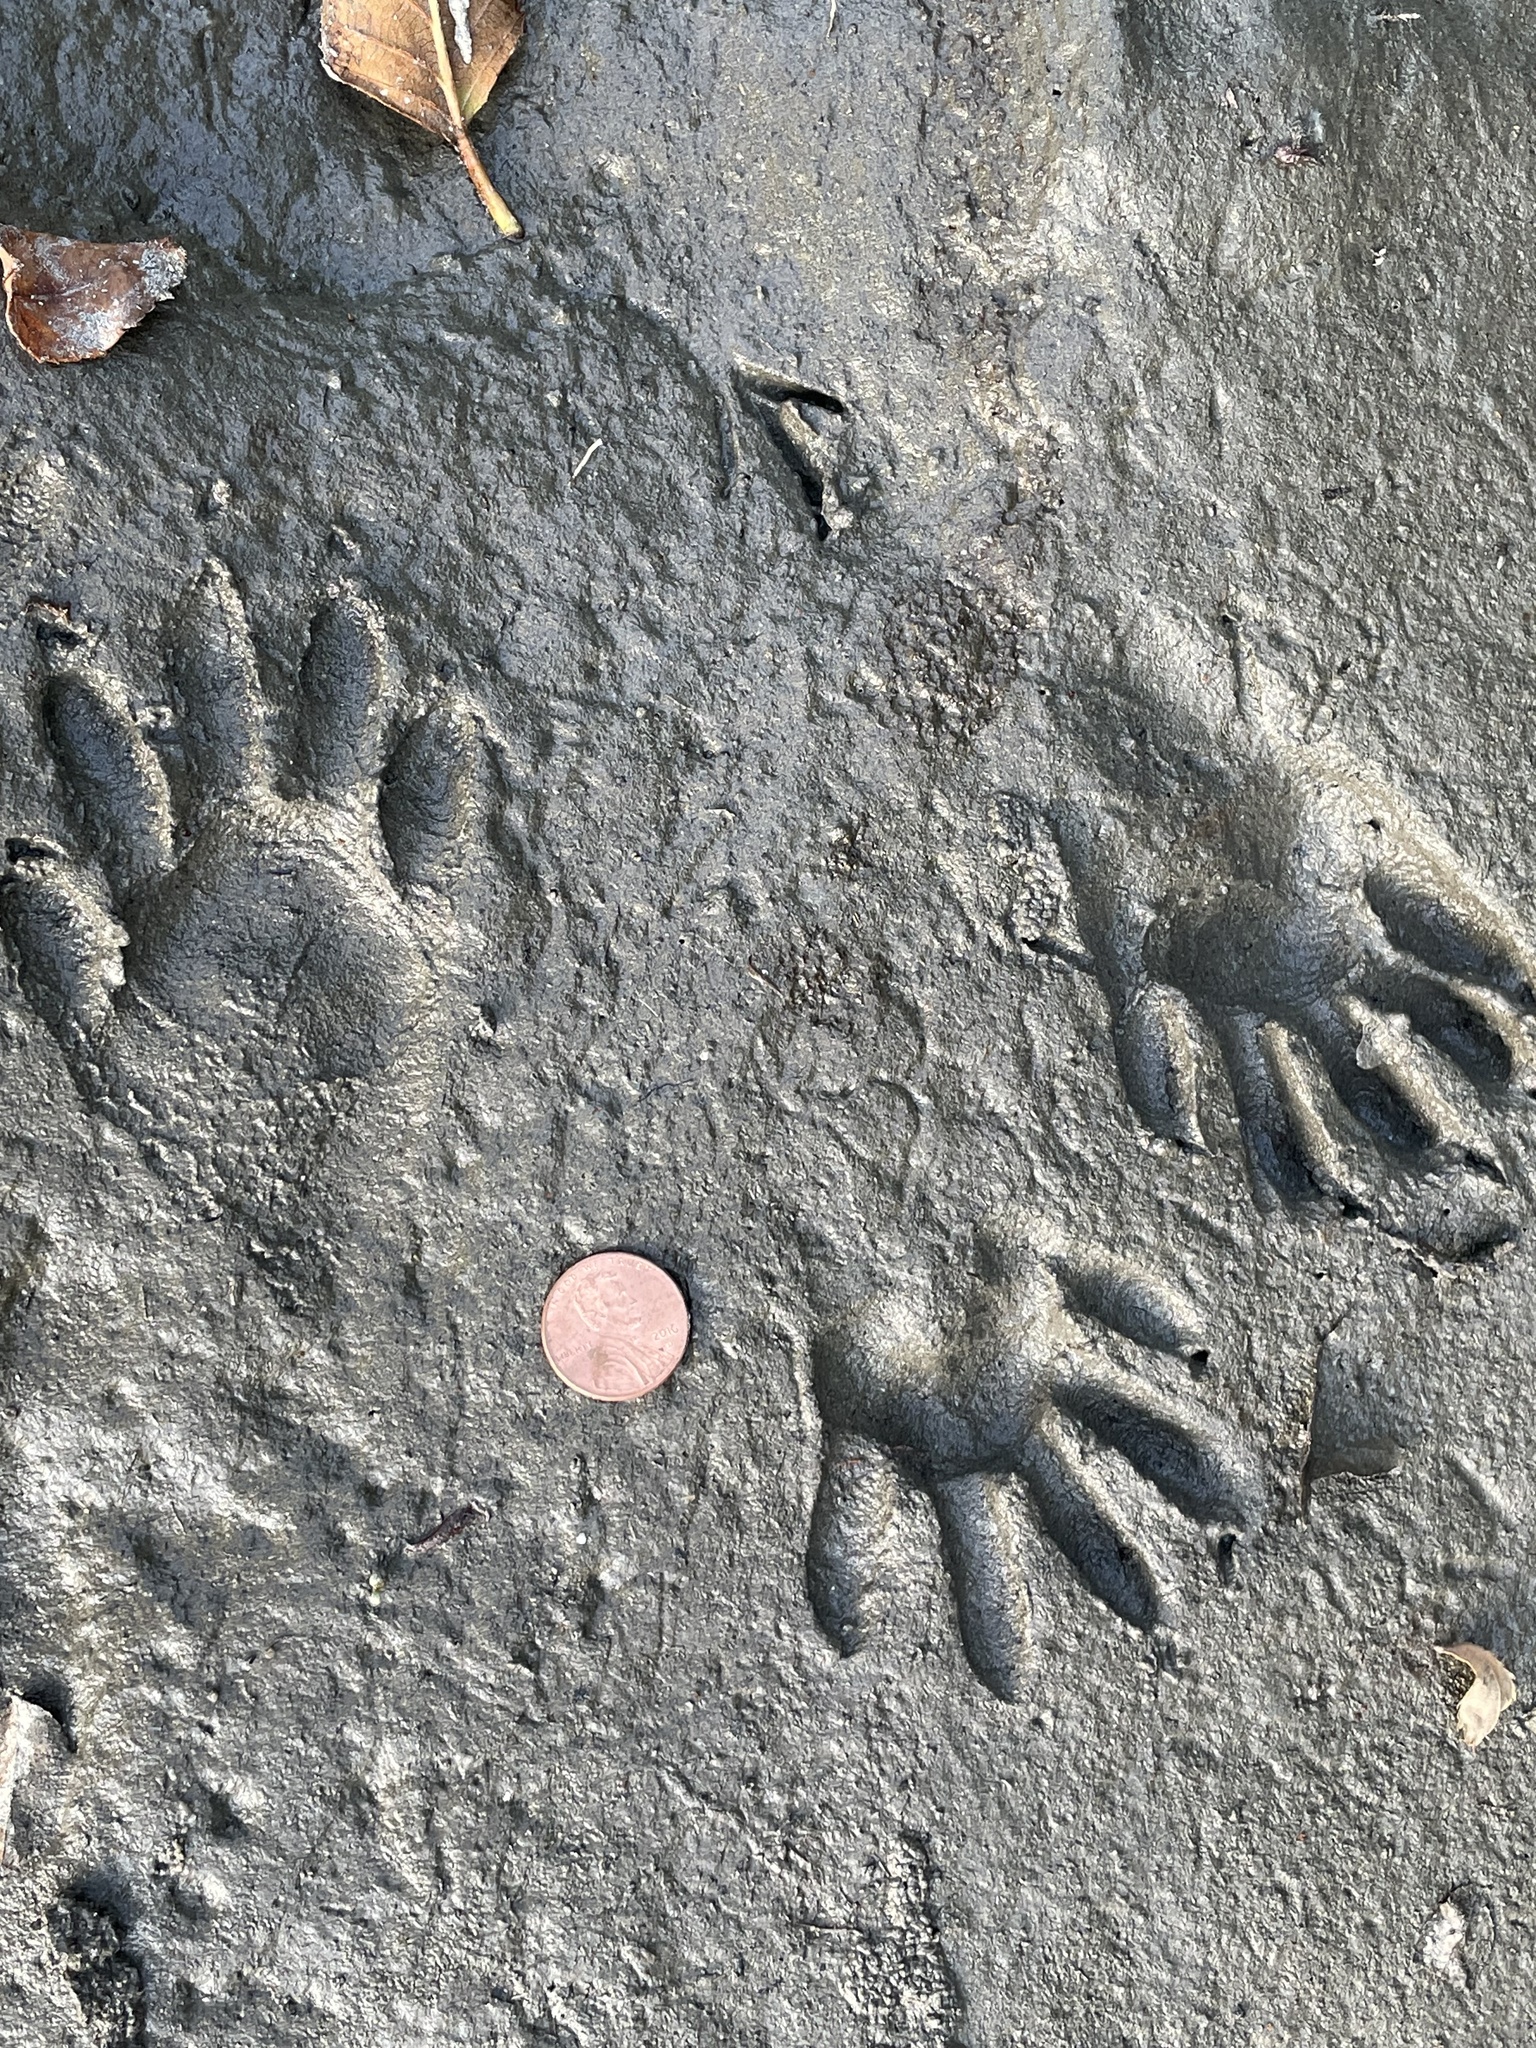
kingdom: Animalia
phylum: Chordata
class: Mammalia
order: Carnivora
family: Procyonidae
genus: Procyon
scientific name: Procyon lotor
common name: Raccoon
